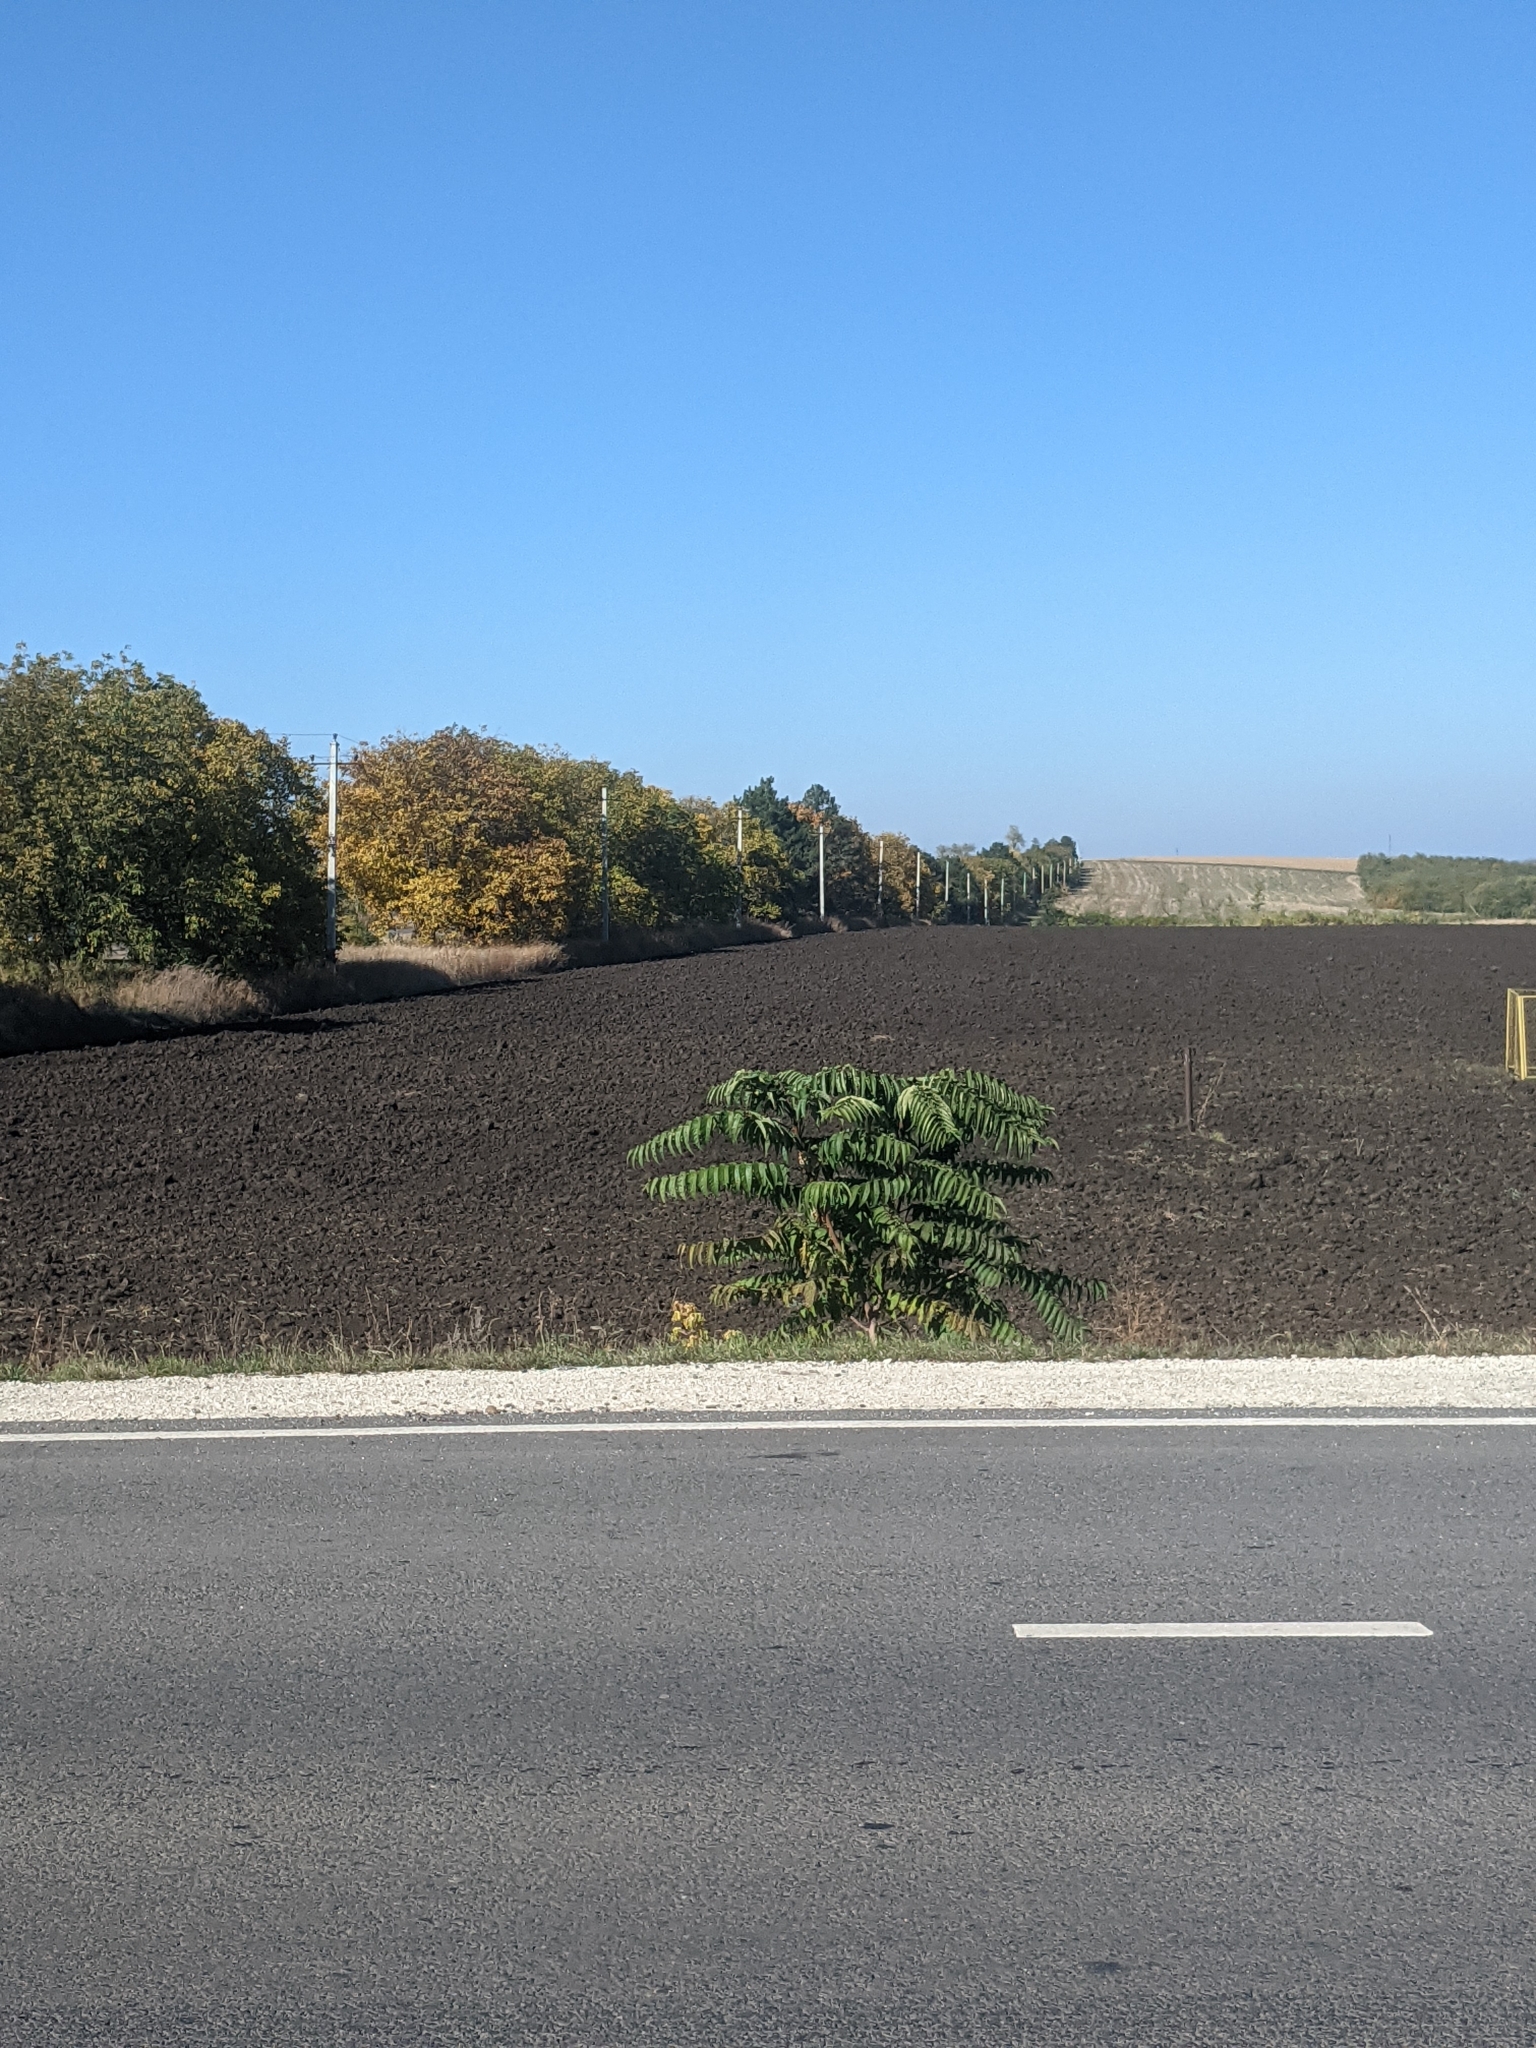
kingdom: Plantae
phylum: Tracheophyta
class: Magnoliopsida
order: Sapindales
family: Simaroubaceae
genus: Ailanthus
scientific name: Ailanthus altissima
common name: Tree-of-heaven
